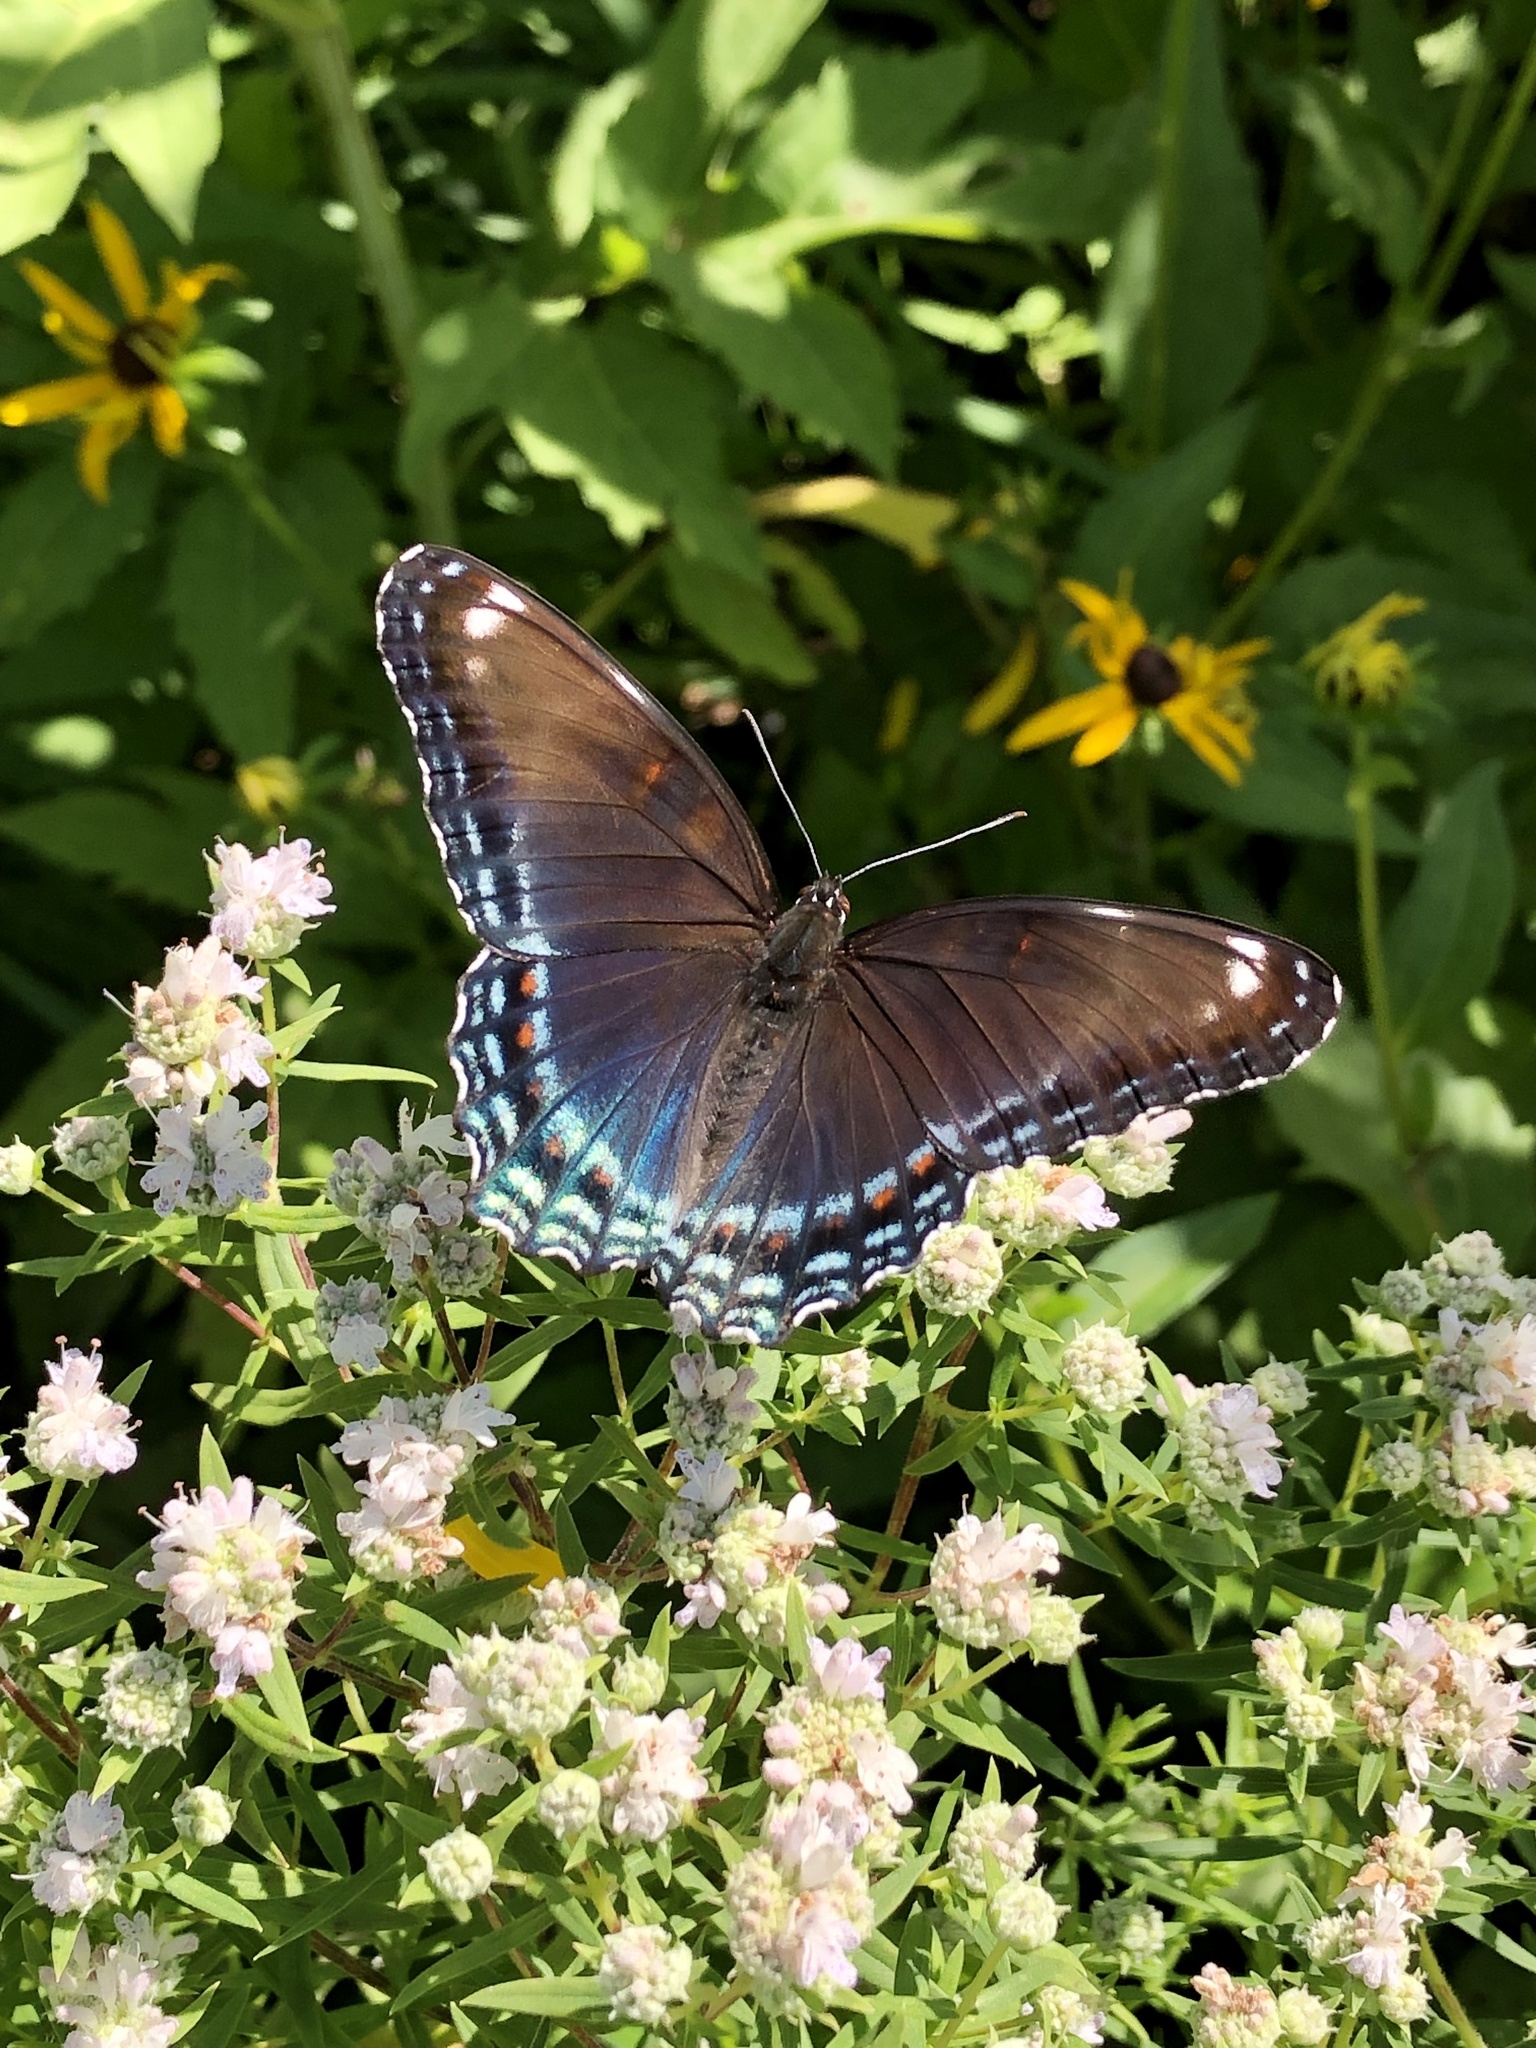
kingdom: Animalia
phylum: Arthropoda
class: Insecta
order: Lepidoptera
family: Nymphalidae
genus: Limenitis
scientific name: Limenitis
